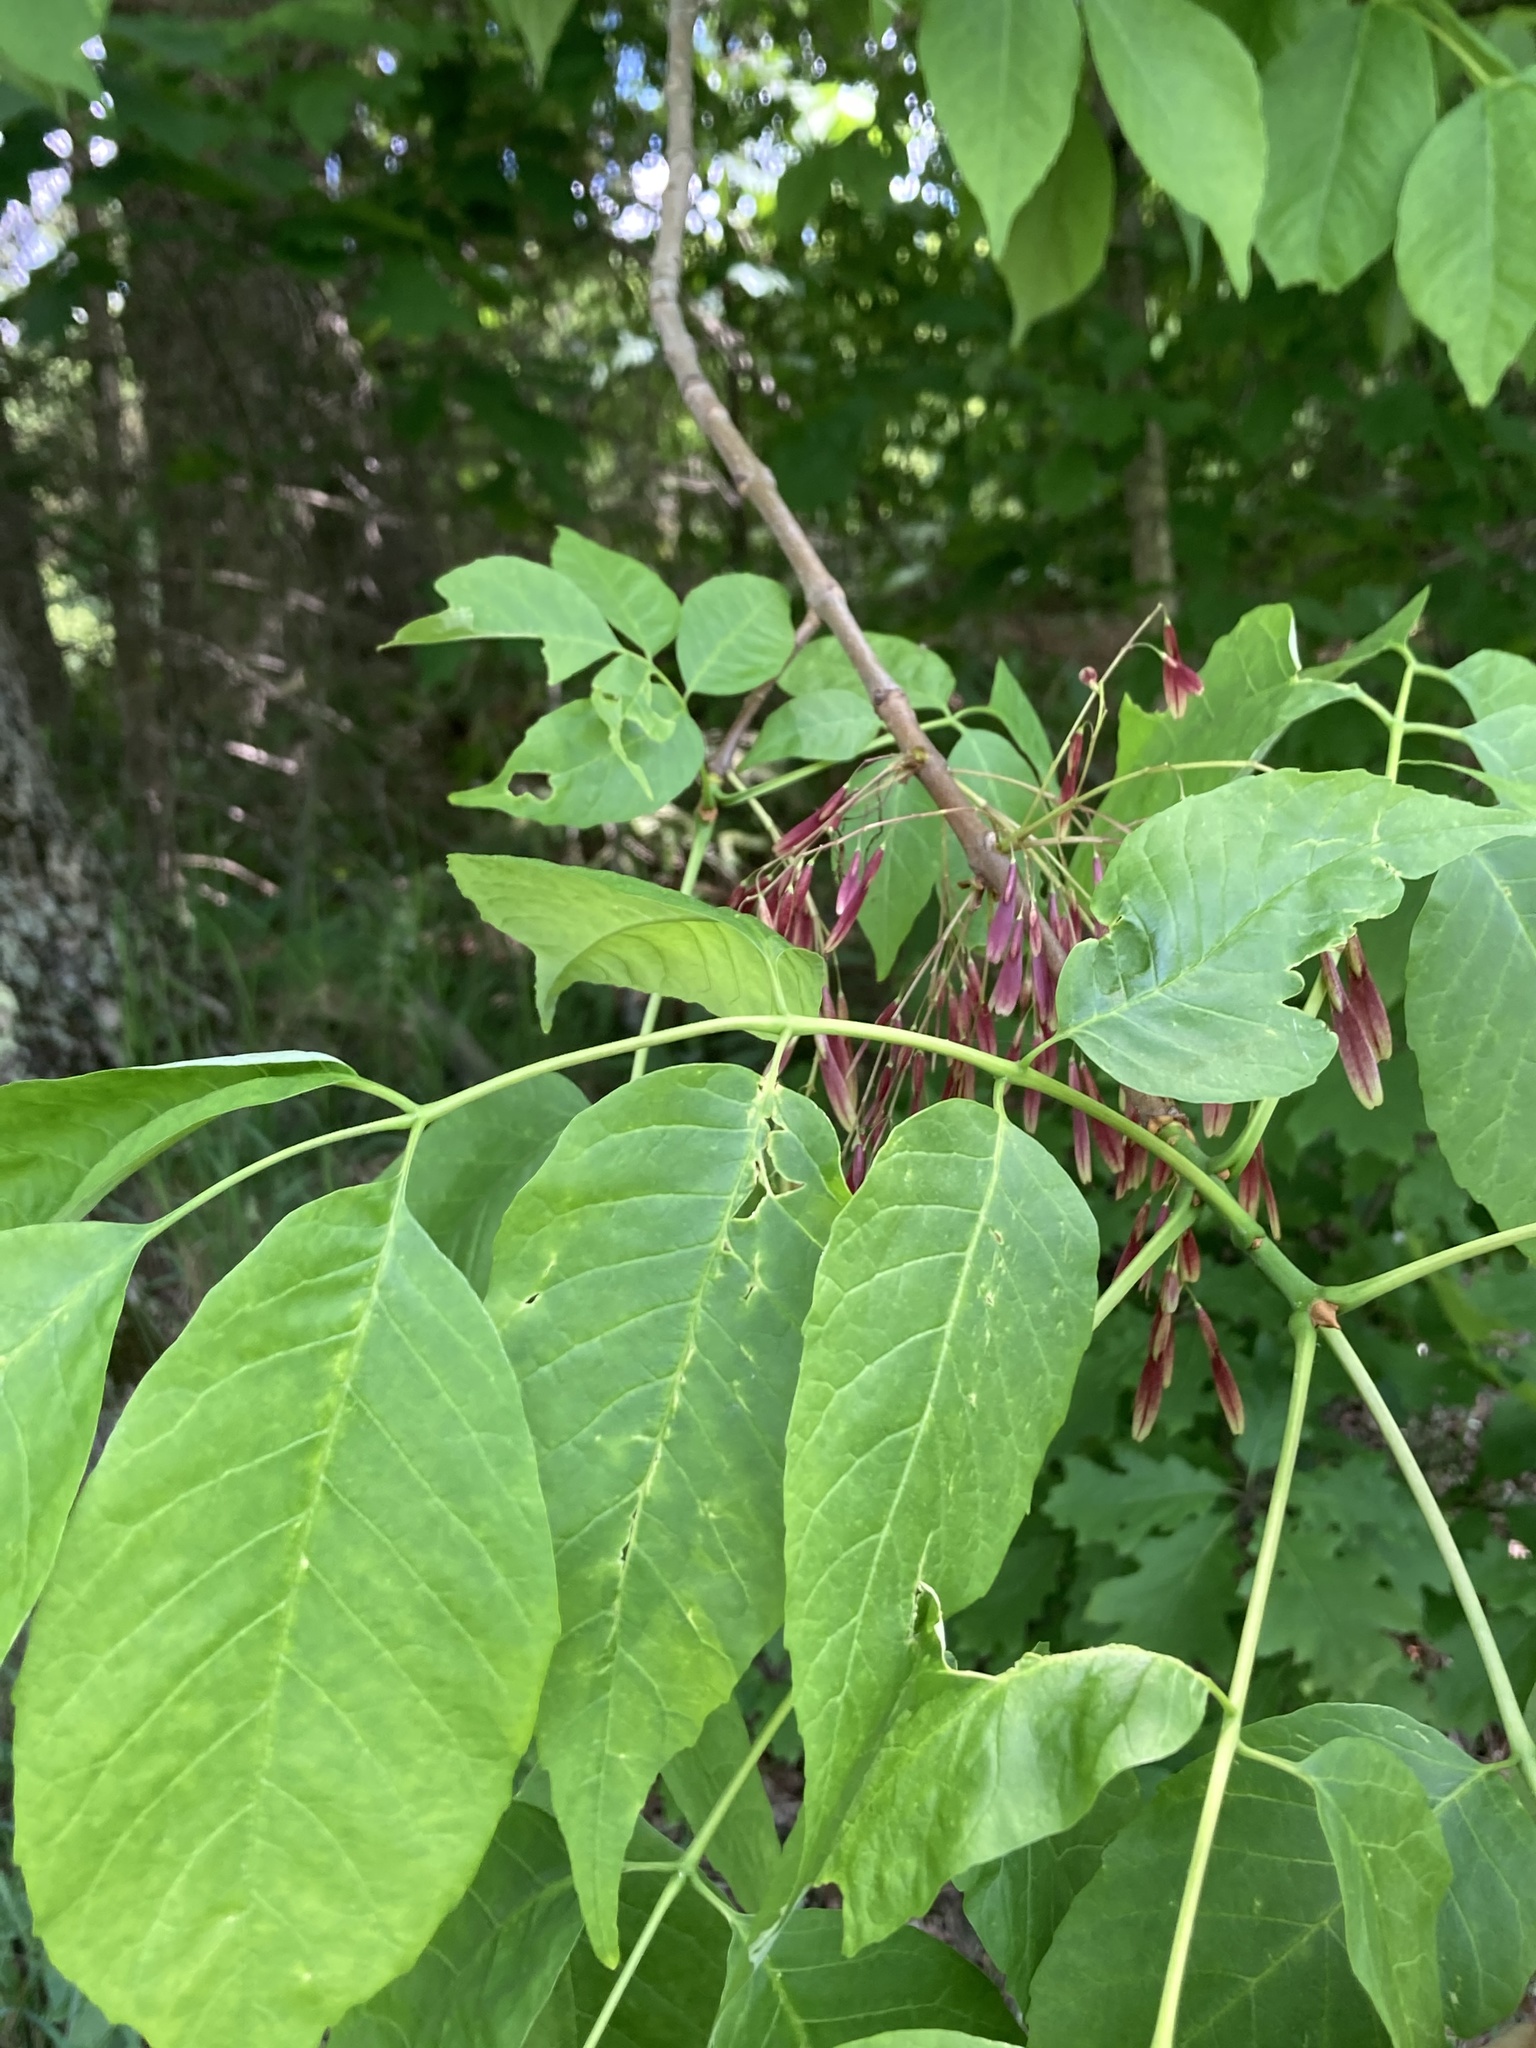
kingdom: Plantae
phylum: Tracheophyta
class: Magnoliopsida
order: Lamiales
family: Oleaceae
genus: Fraxinus
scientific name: Fraxinus americana
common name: White ash
